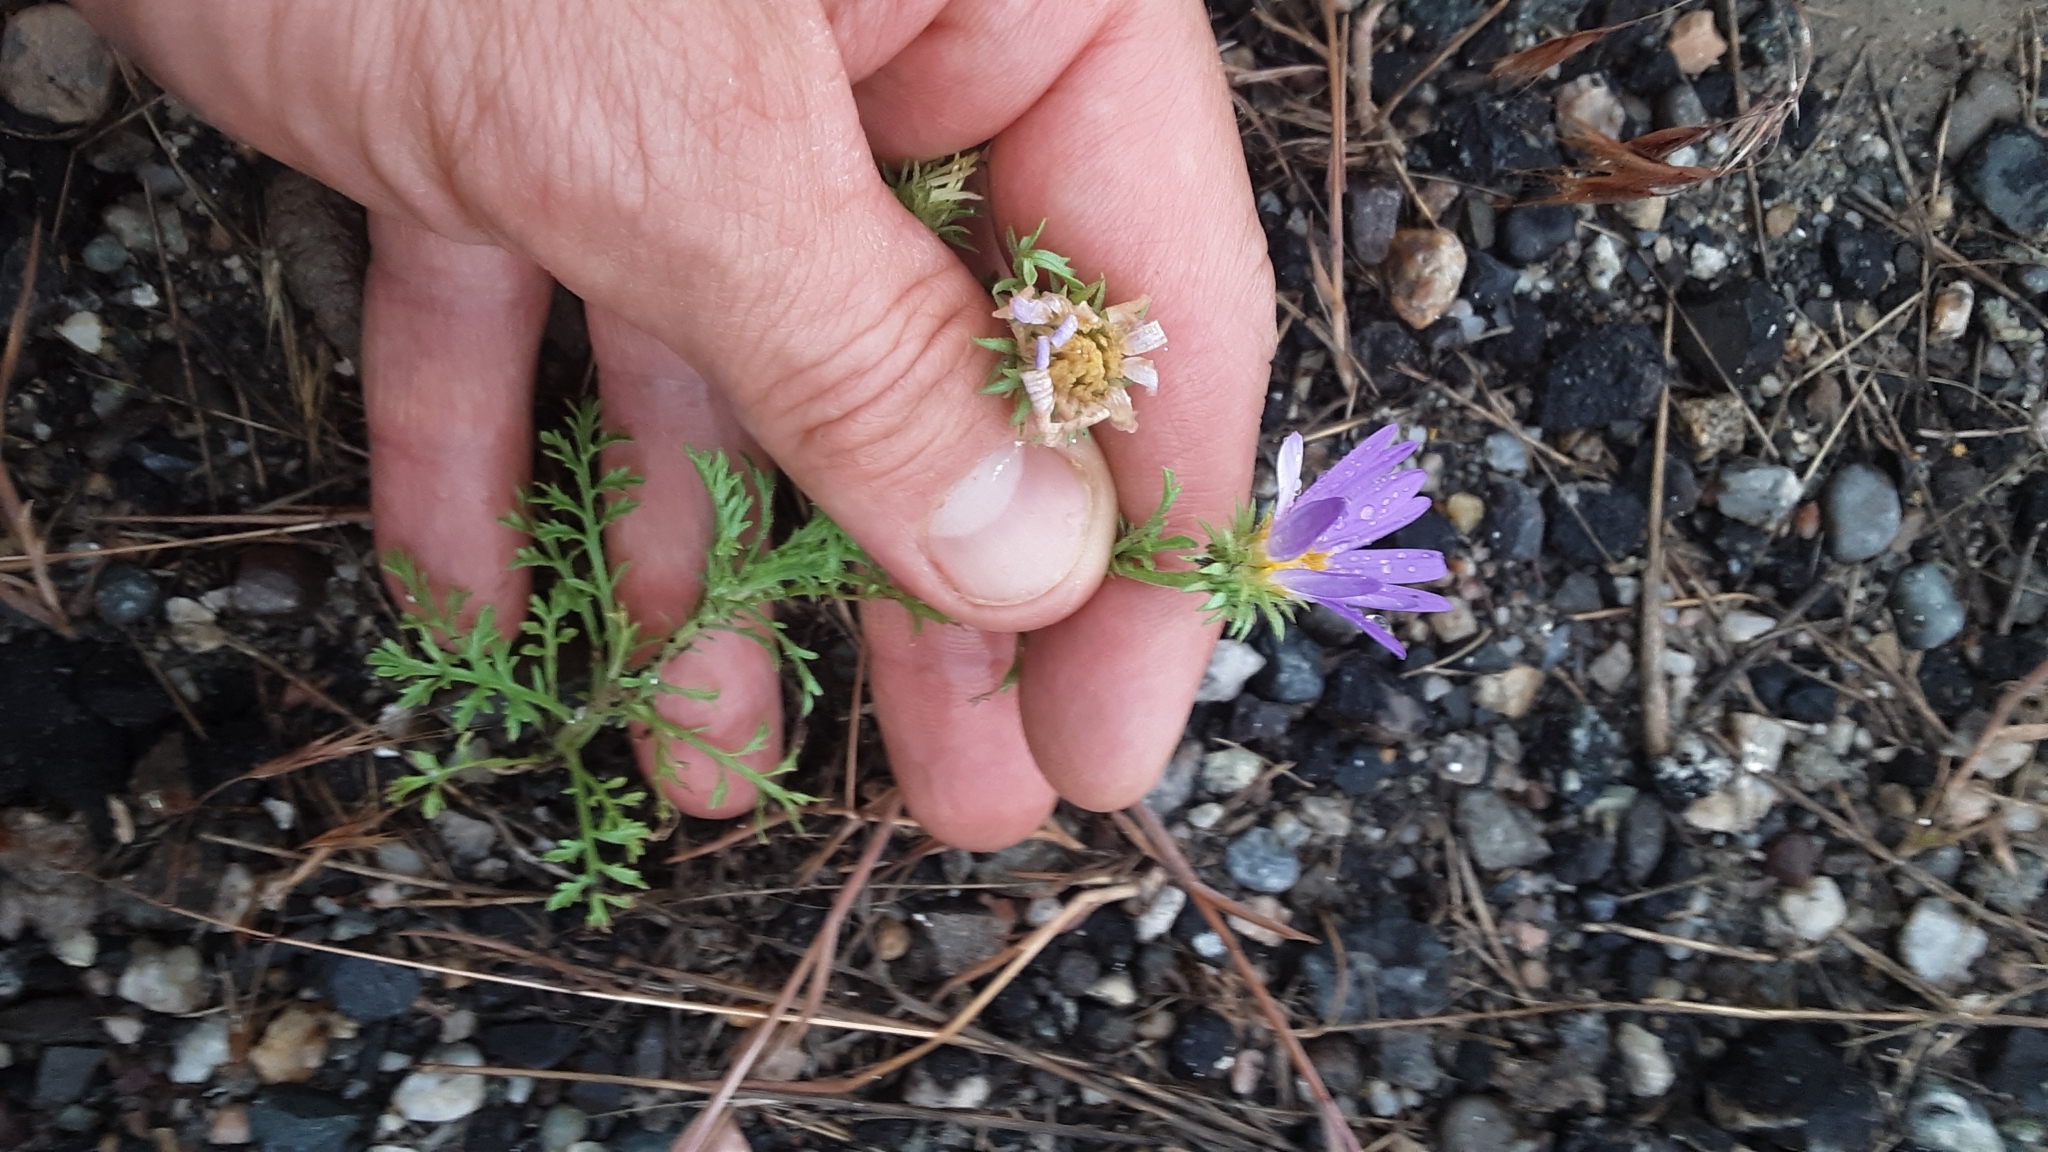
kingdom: Plantae
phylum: Tracheophyta
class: Magnoliopsida
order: Asterales
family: Asteraceae
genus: Machaeranthera
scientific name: Machaeranthera tanacetifolia
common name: Tansy-aster
